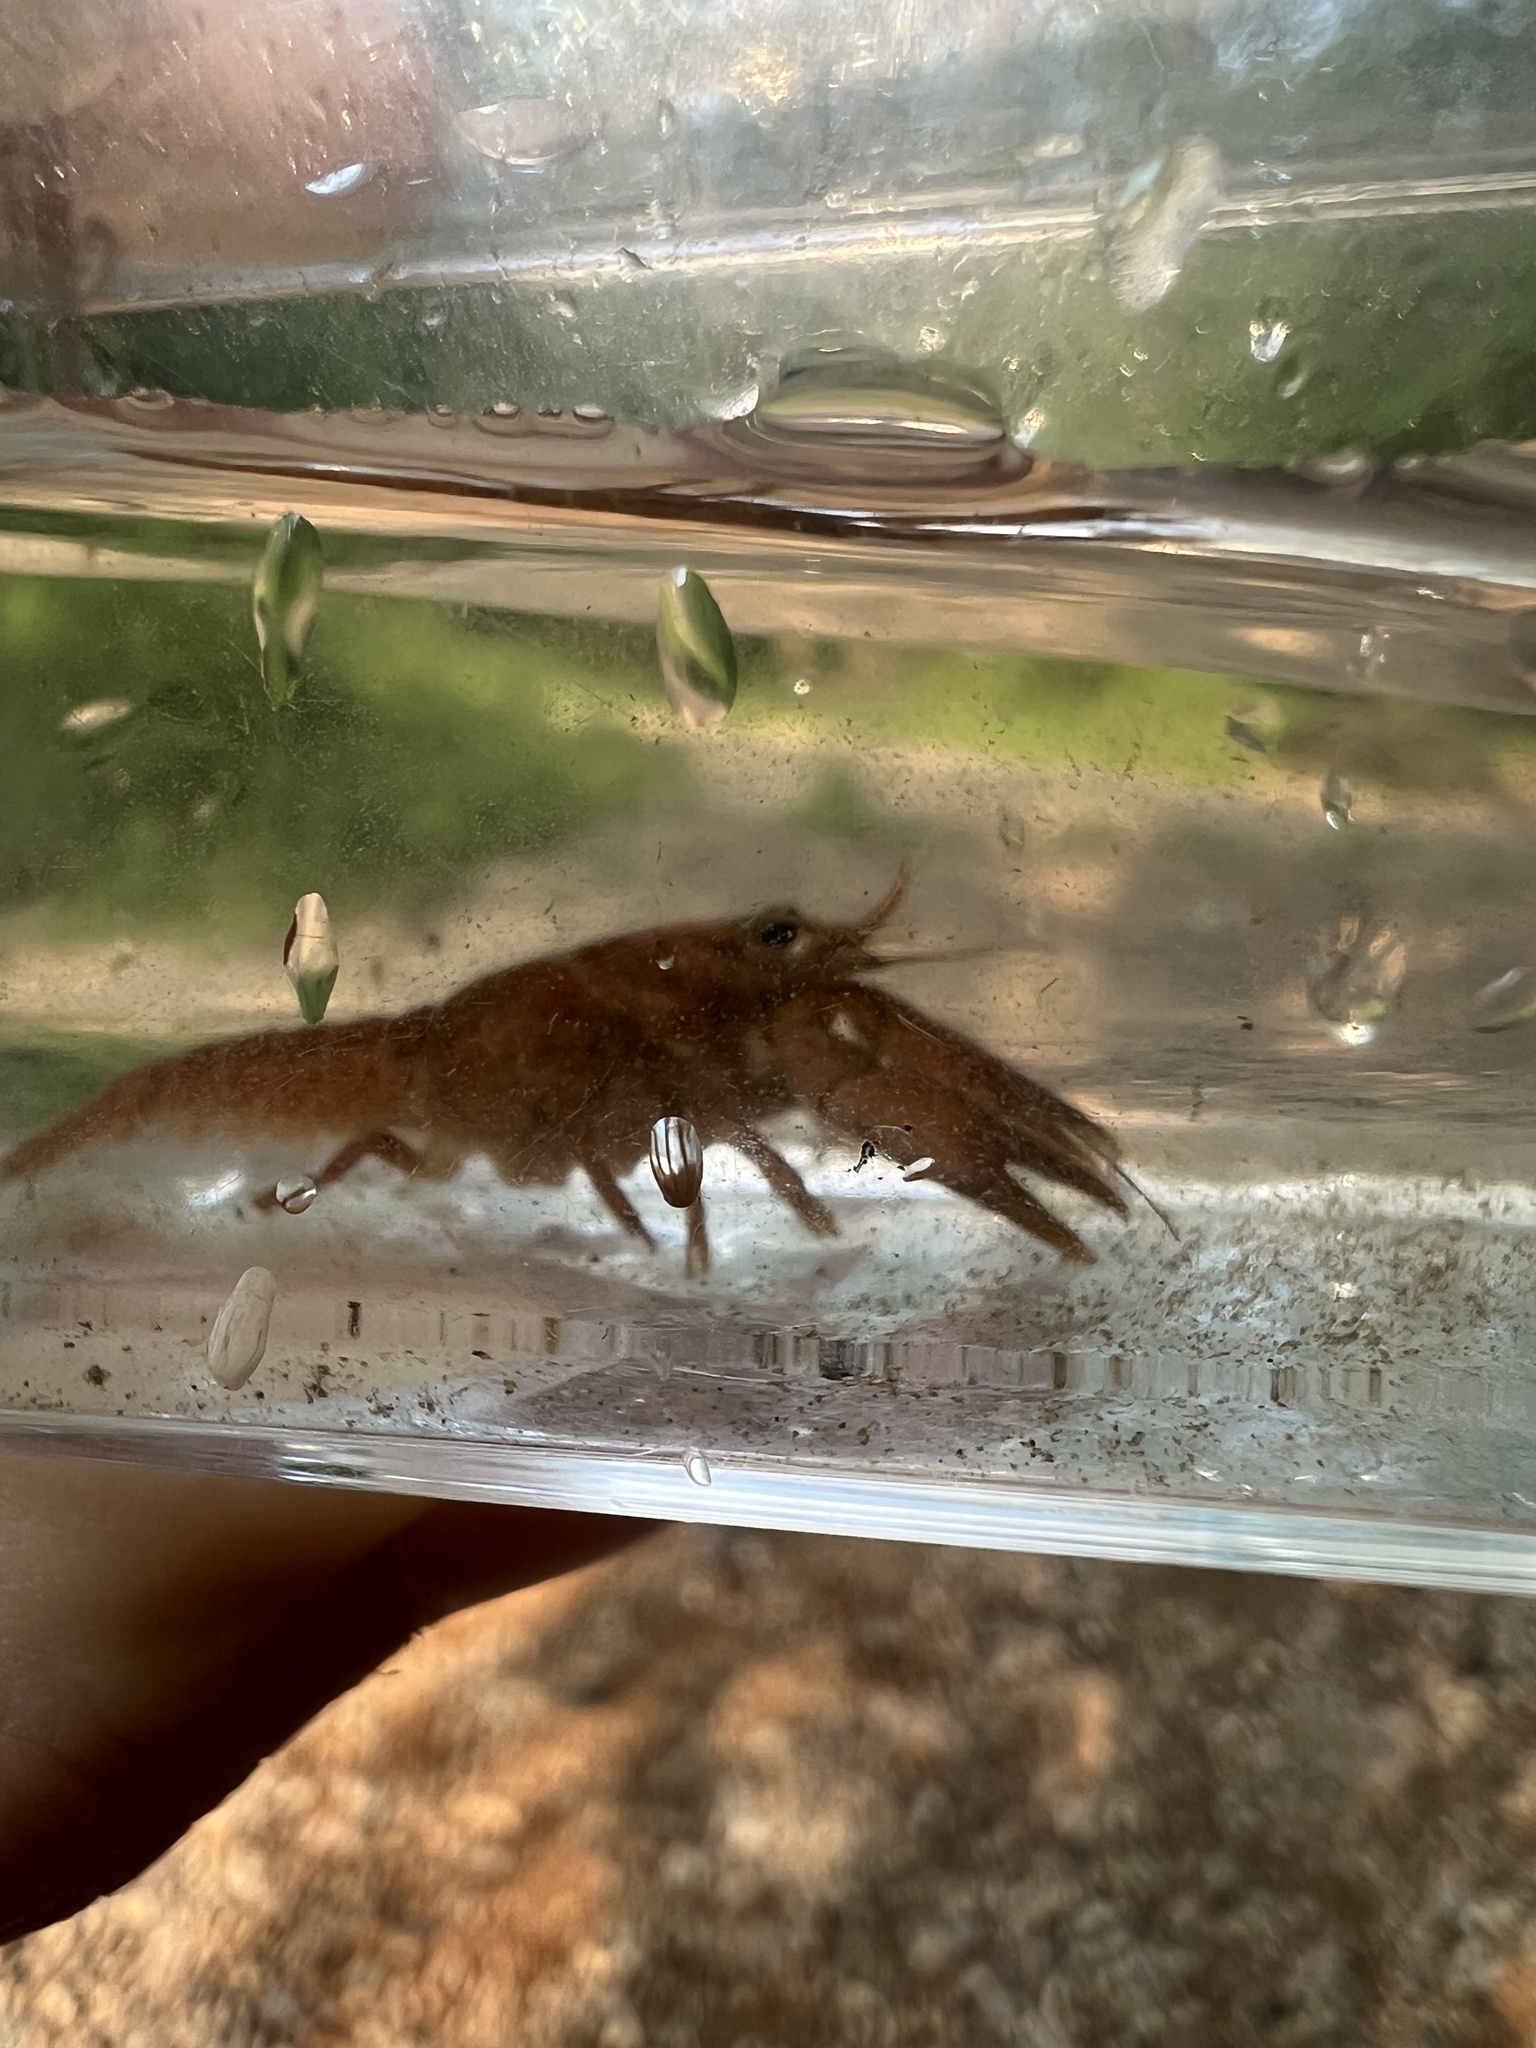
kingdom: Animalia
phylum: Arthropoda
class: Malacostraca
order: Decapoda
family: Cambaridae
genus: Faxonius
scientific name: Faxonius compressus
